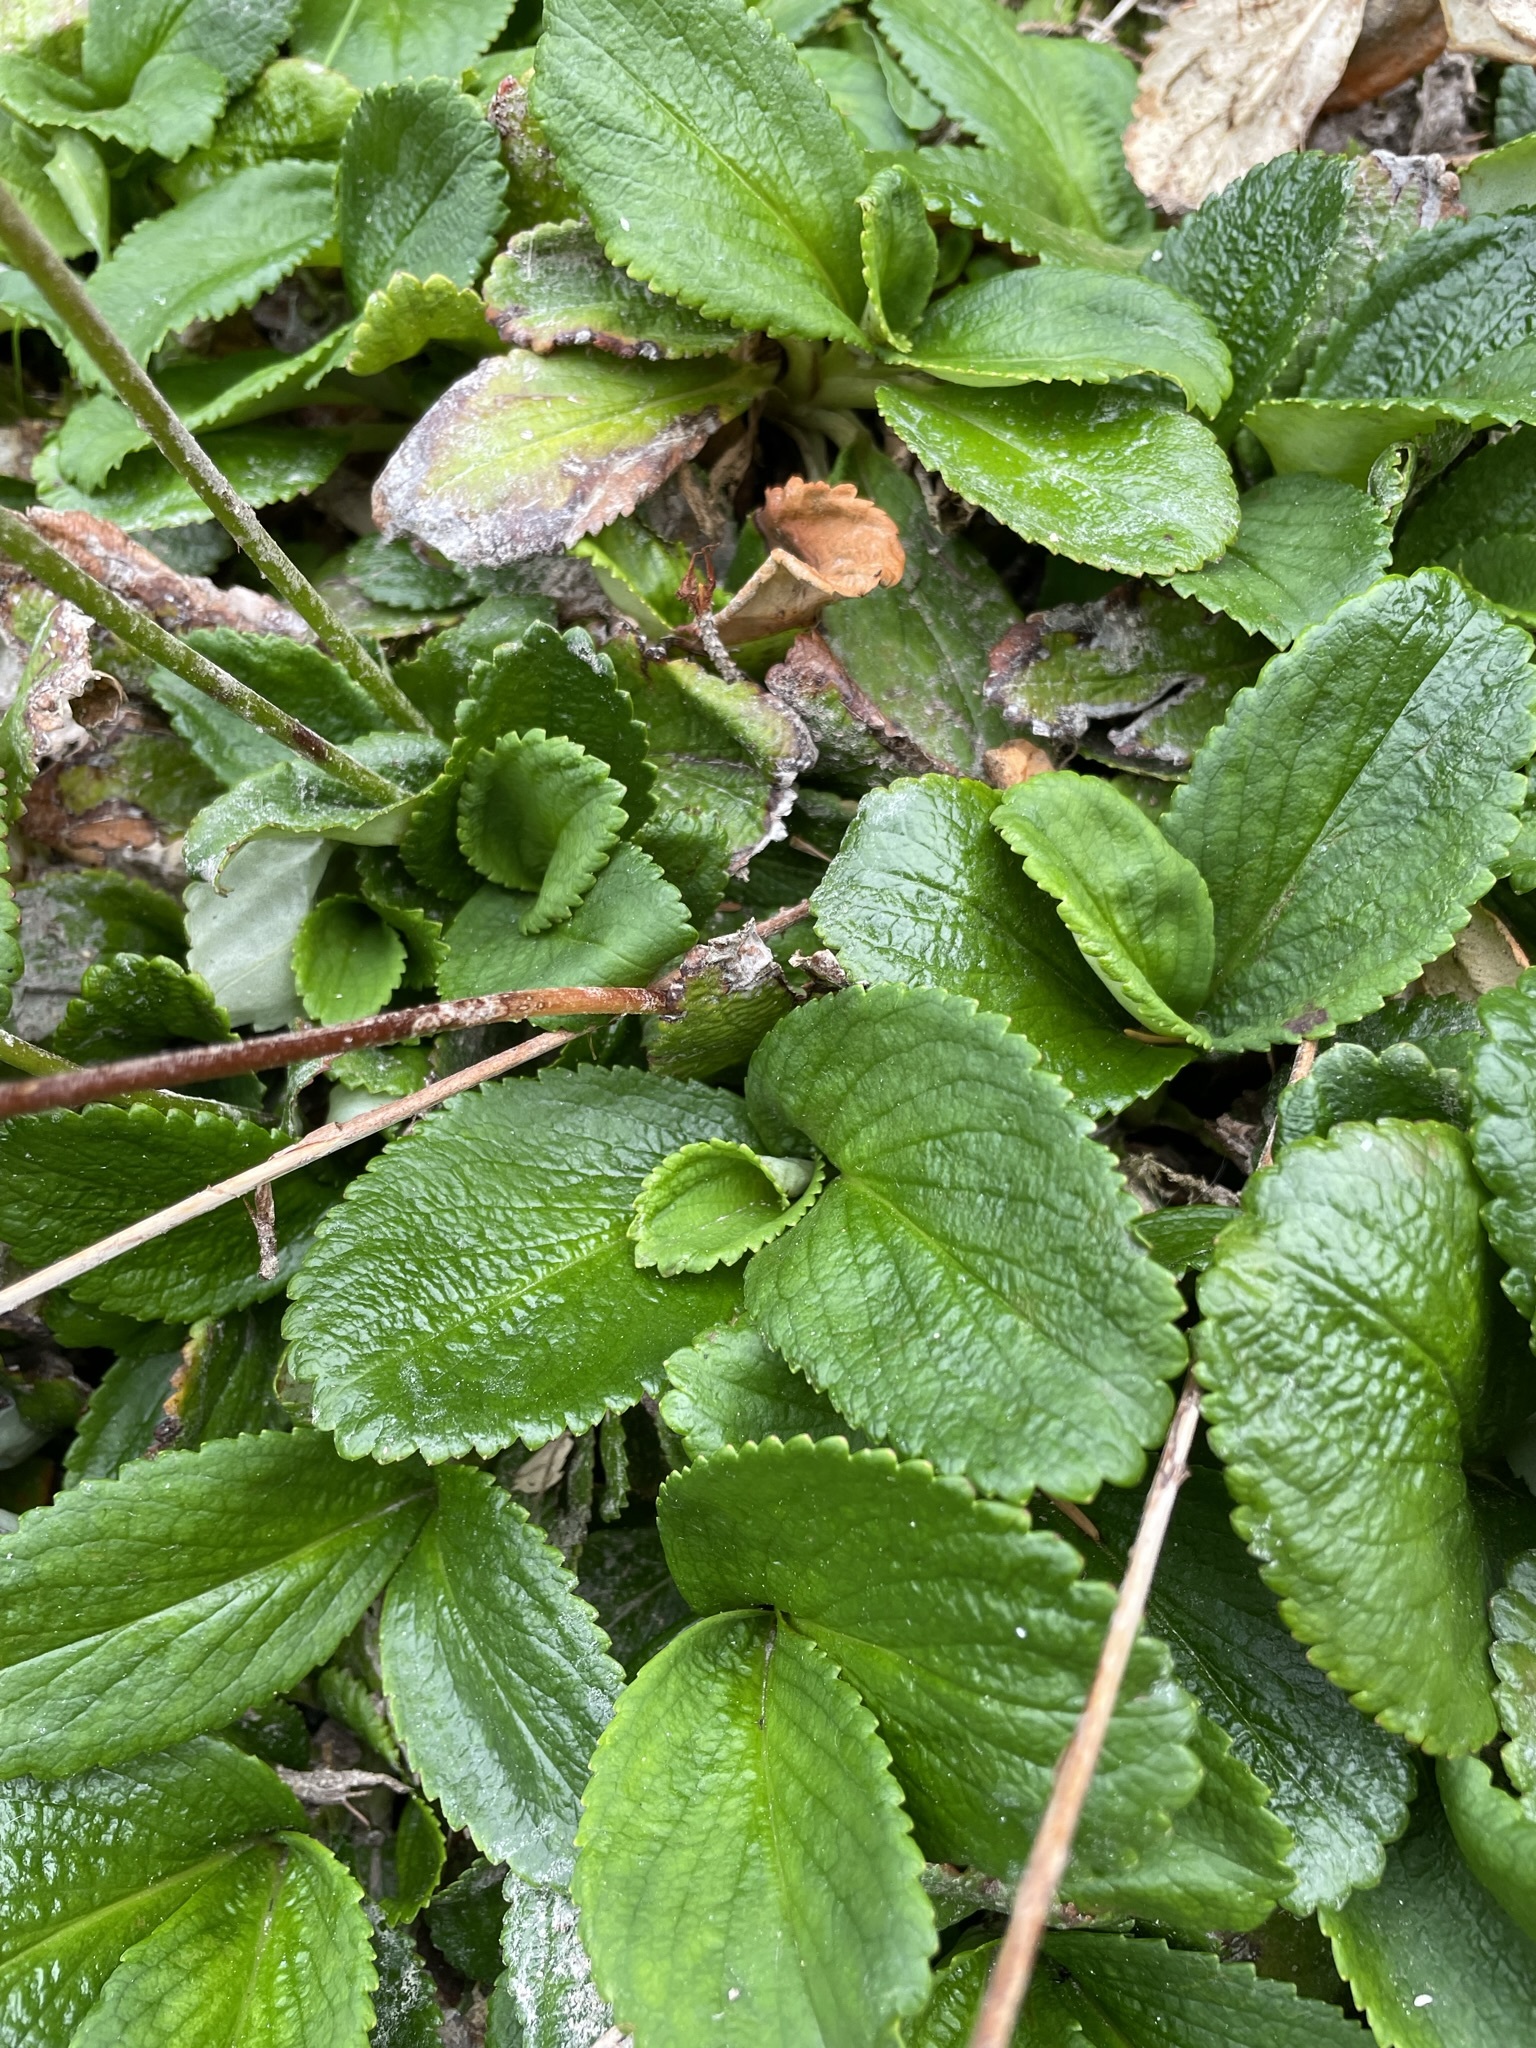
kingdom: Plantae
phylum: Tracheophyta
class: Magnoliopsida
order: Saxifragales
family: Saxifragaceae
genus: Leptarrhena
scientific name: Leptarrhena pyrolifolia
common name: Leatherleaf-saxifrage
